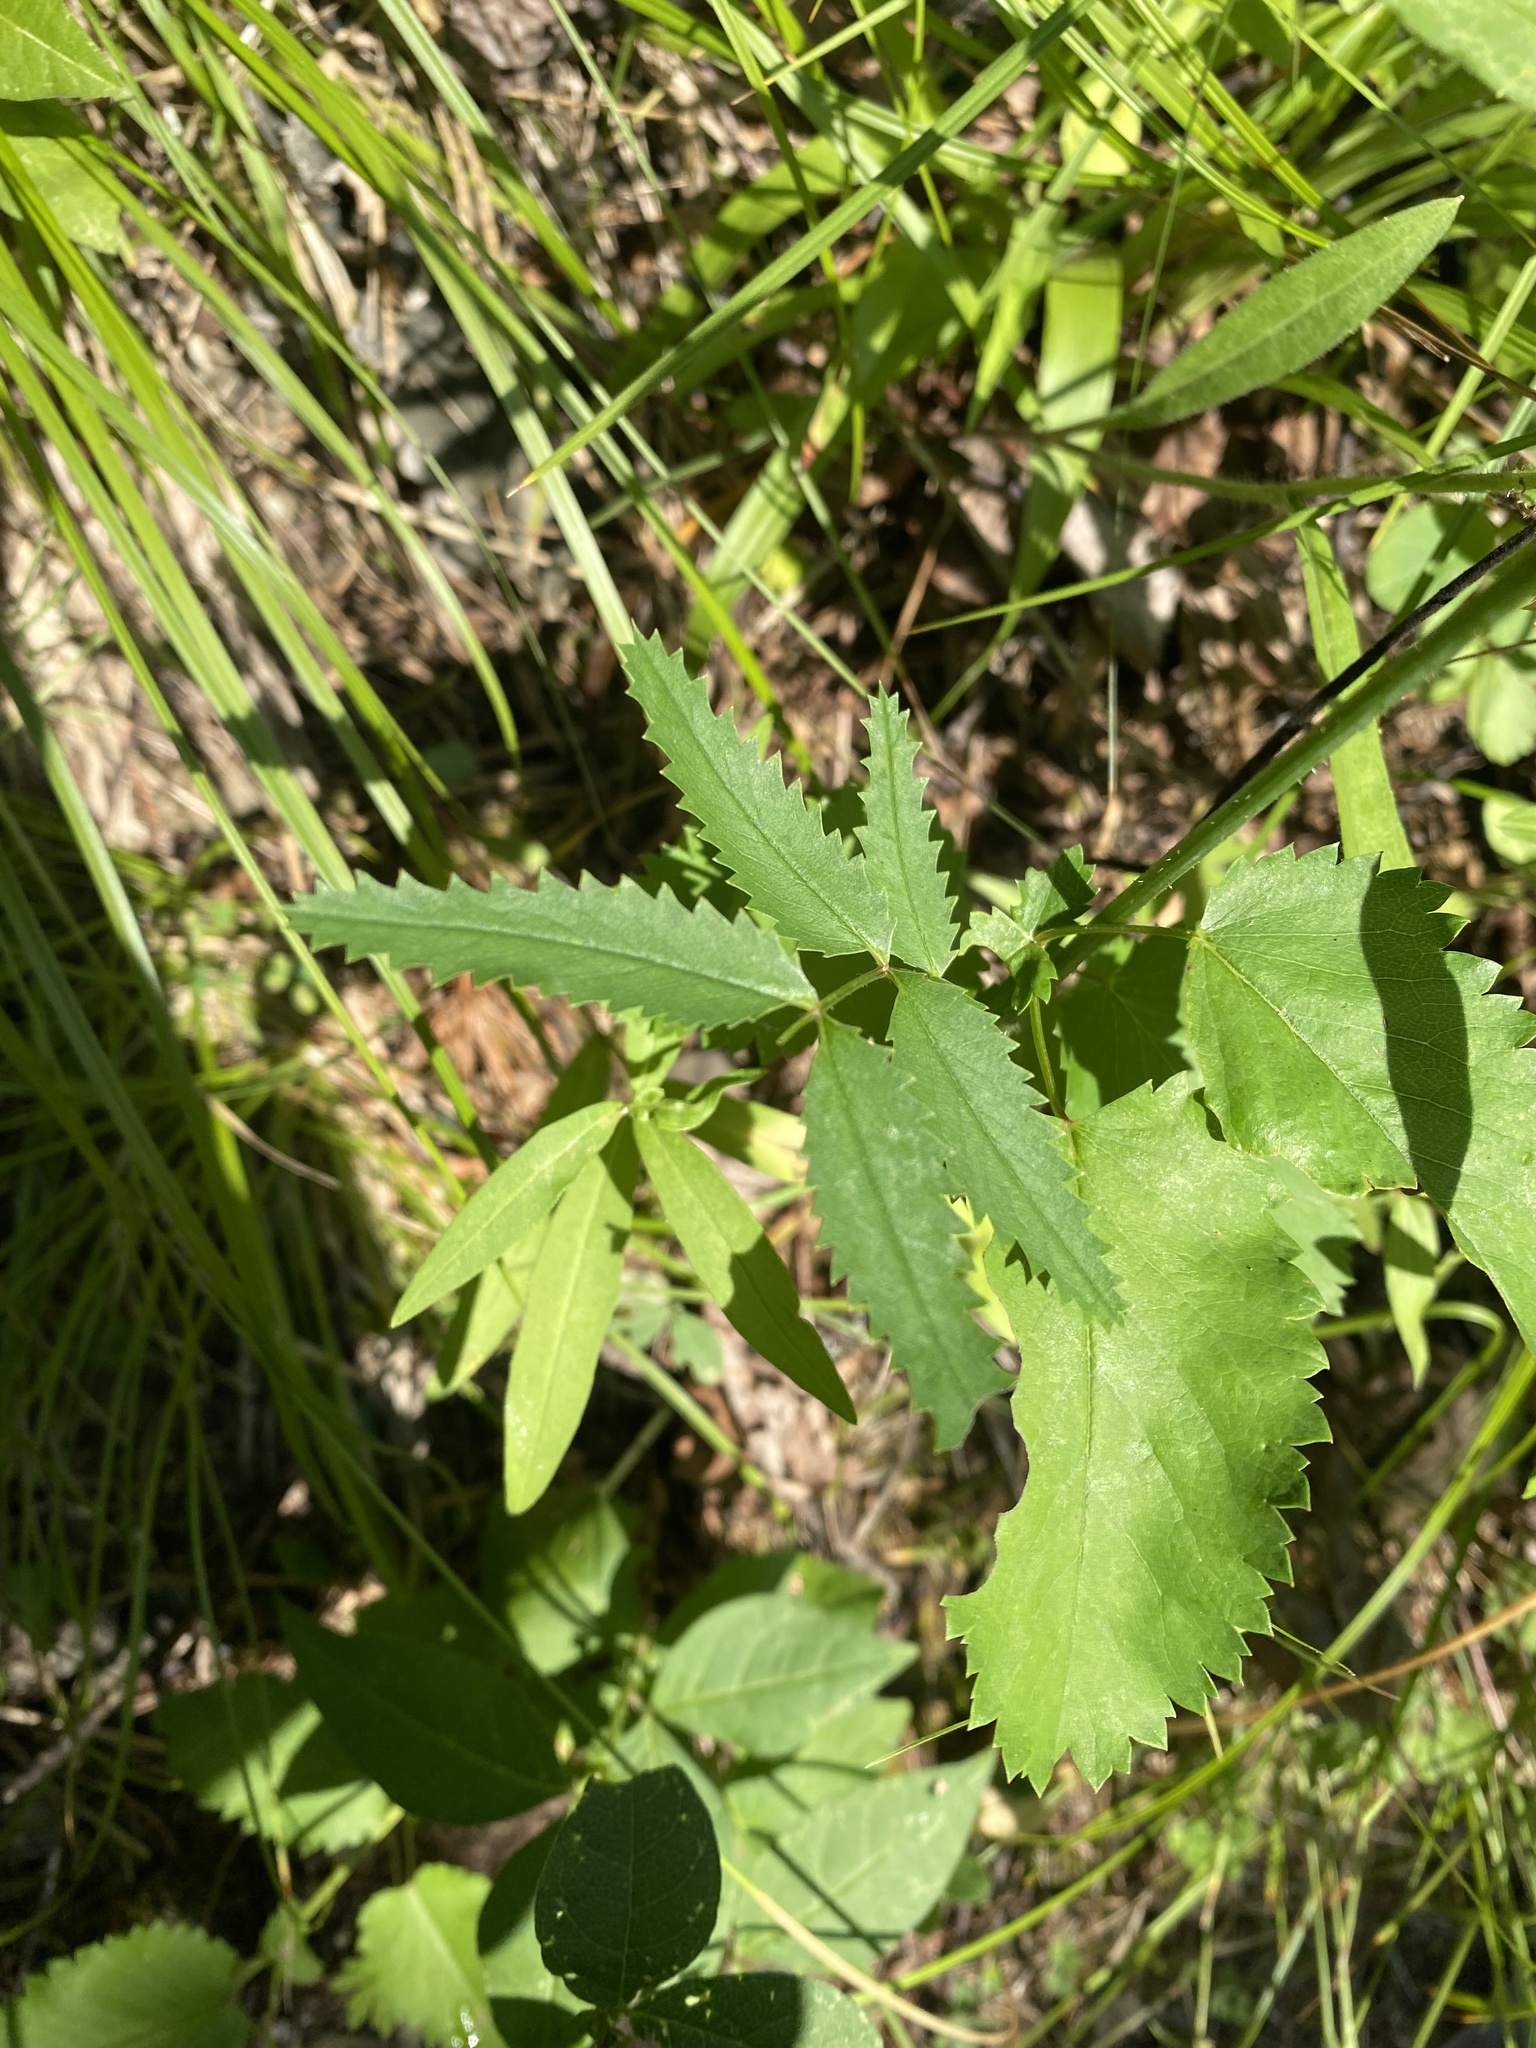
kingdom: Plantae
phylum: Tracheophyta
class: Magnoliopsida
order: Rosales
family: Rosaceae
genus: Sanguisorba
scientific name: Sanguisorba officinalis
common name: Great burnet
